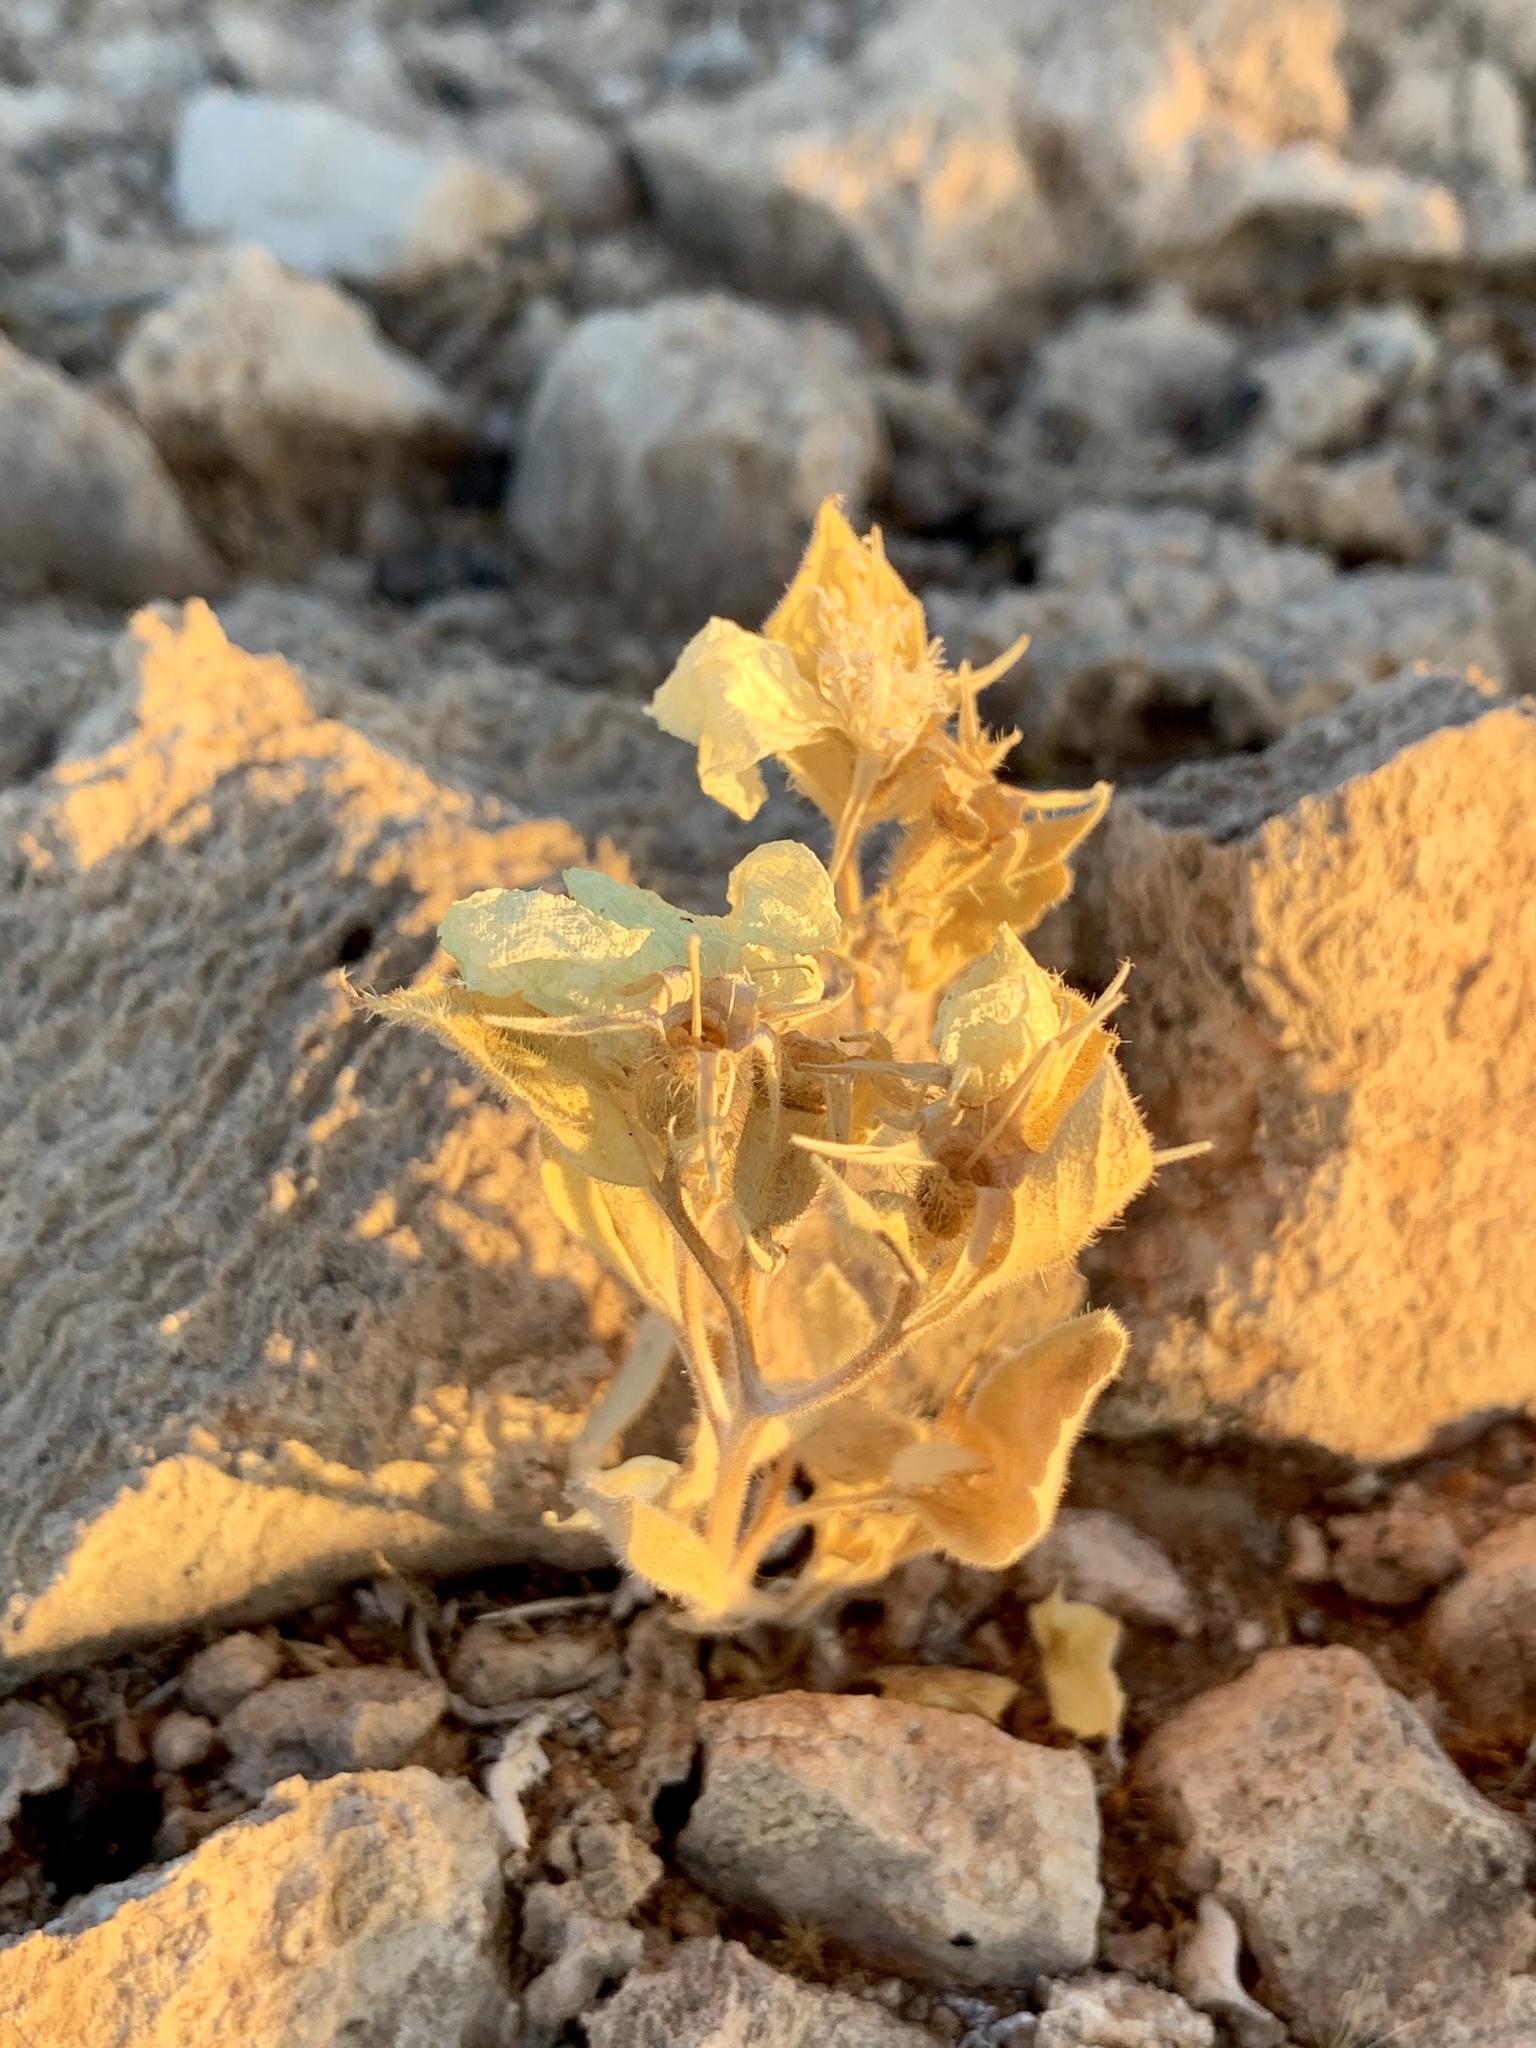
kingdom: Plantae
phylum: Tracheophyta
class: Magnoliopsida
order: Caryophyllales
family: Amaranthaceae
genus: Atriplex
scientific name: Atriplex hymenelytra
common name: Desert-holly
